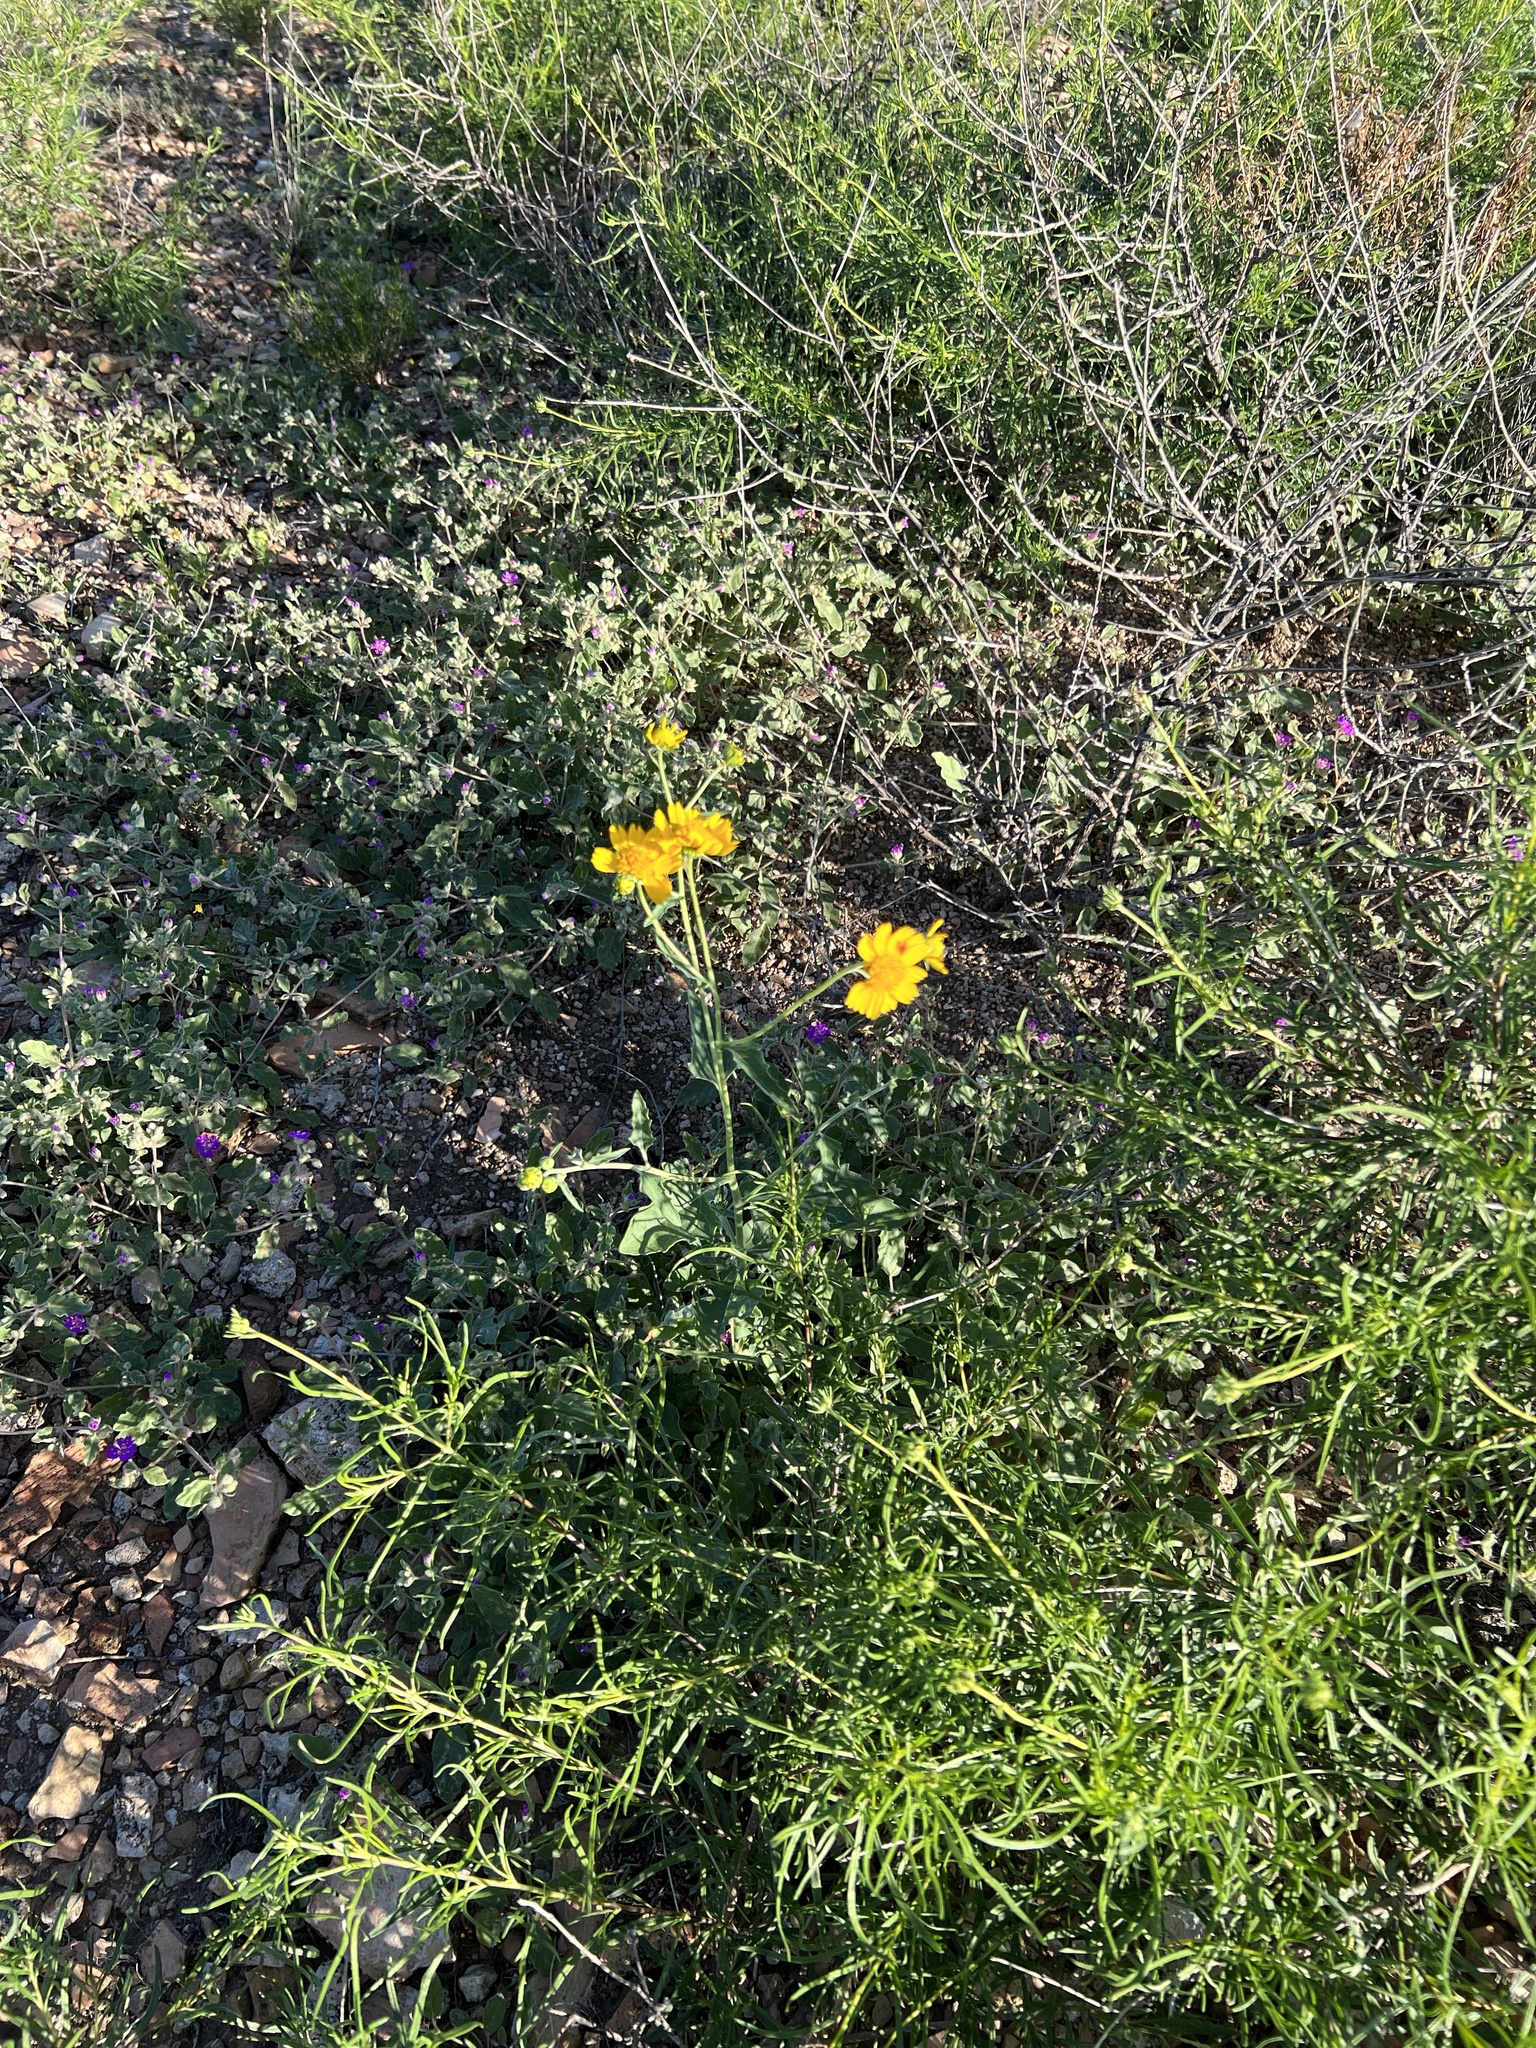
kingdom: Plantae
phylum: Tracheophyta
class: Magnoliopsida
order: Asterales
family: Asteraceae
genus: Verbesina
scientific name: Verbesina encelioides
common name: Golden crownbeard
